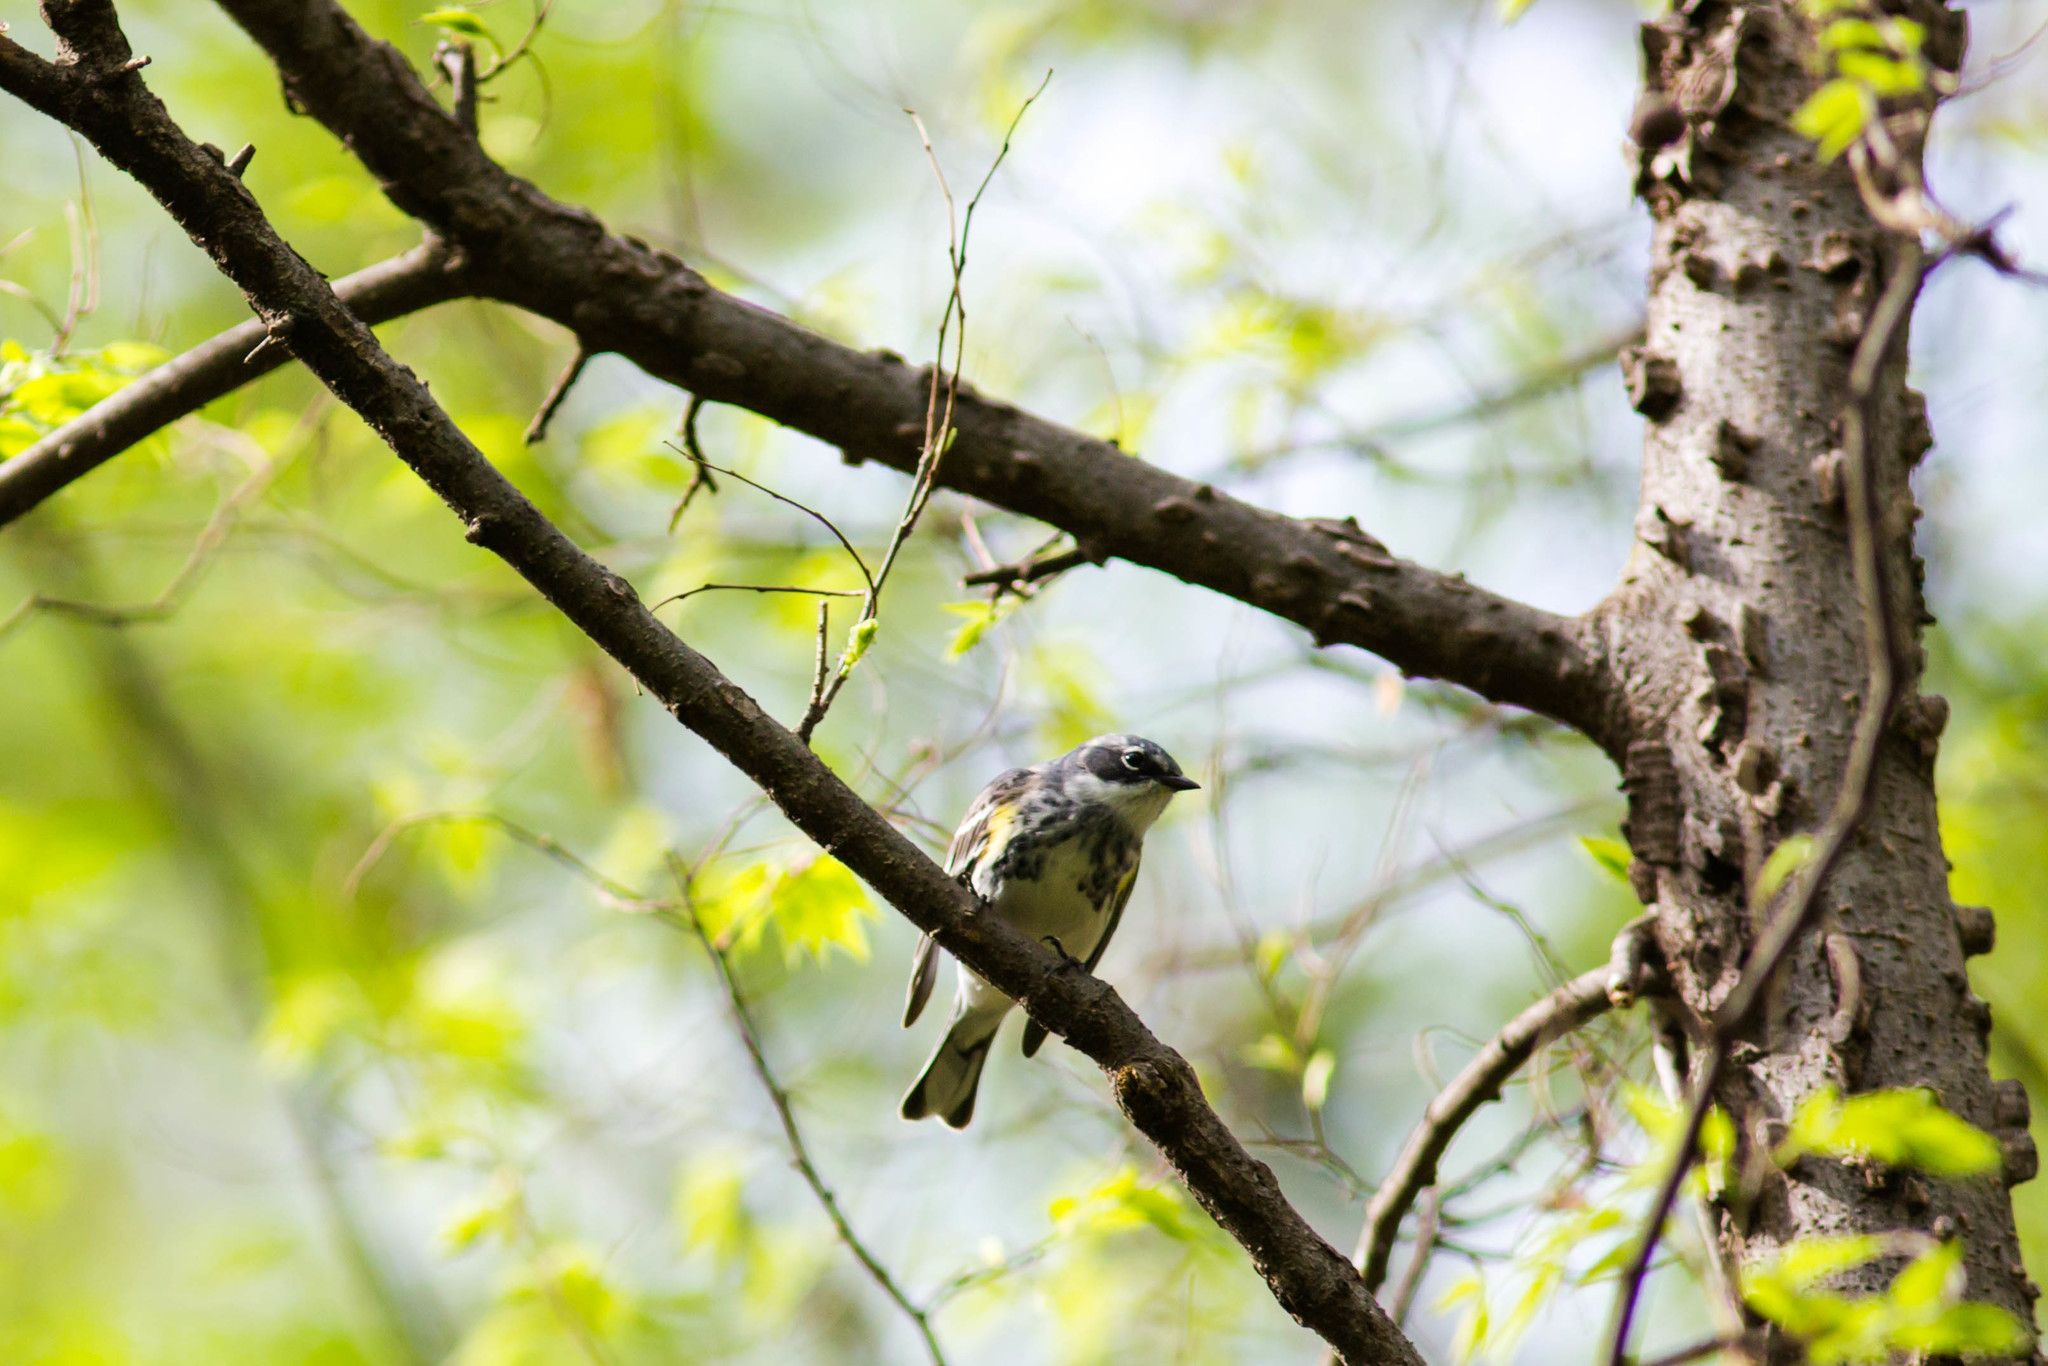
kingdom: Animalia
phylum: Chordata
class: Aves
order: Passeriformes
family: Parulidae
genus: Setophaga
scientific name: Setophaga coronata
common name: Myrtle warbler
